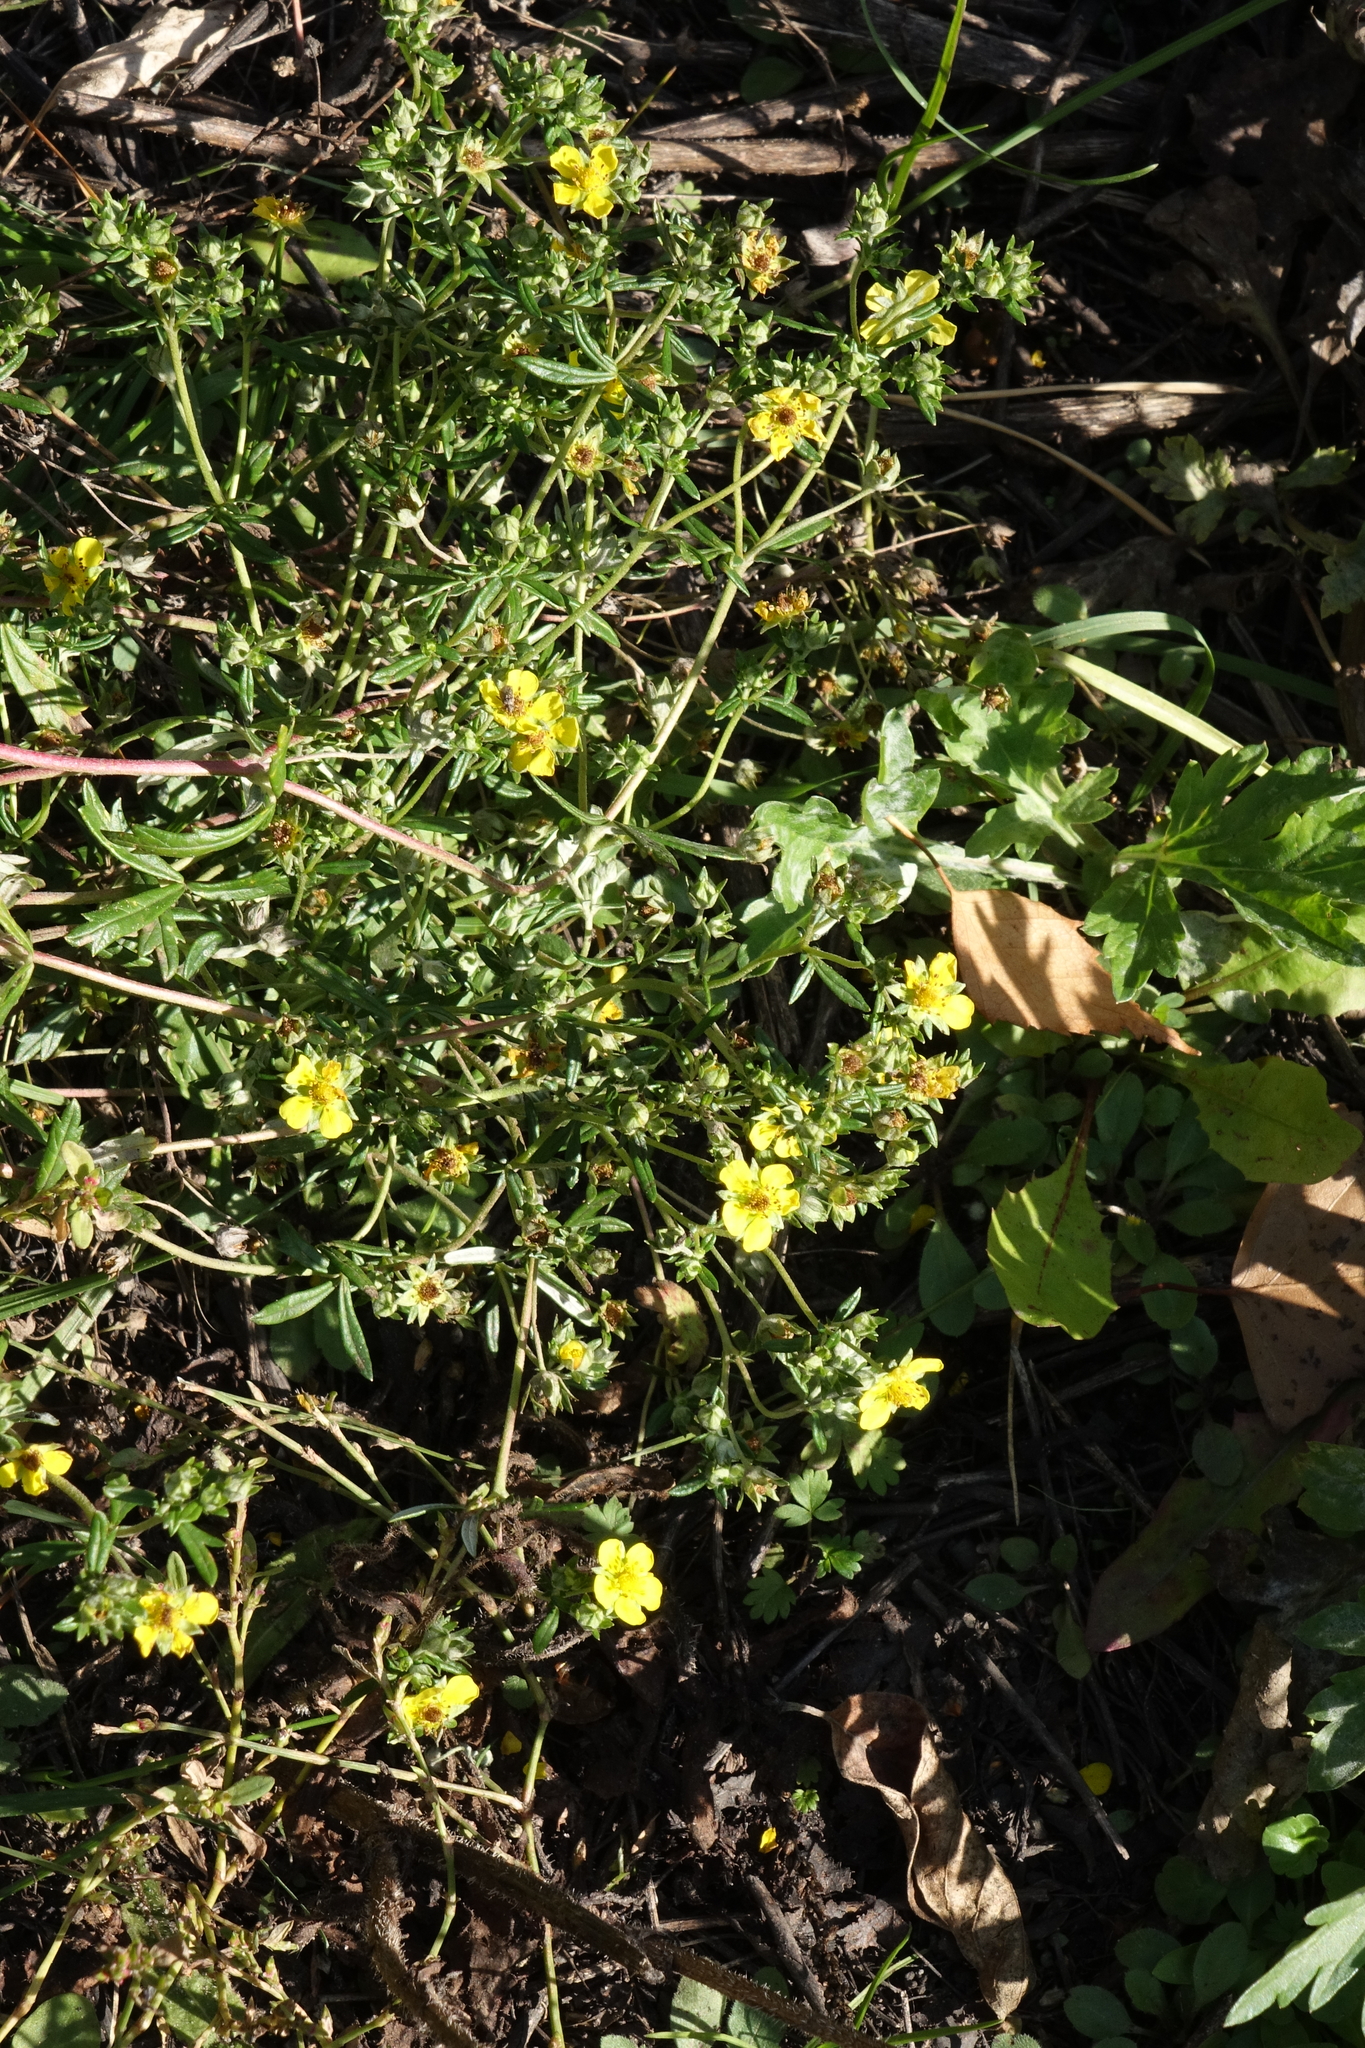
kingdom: Plantae
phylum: Tracheophyta
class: Magnoliopsida
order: Rosales
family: Rosaceae
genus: Potentilla
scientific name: Potentilla argentea
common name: Hoary cinquefoil
